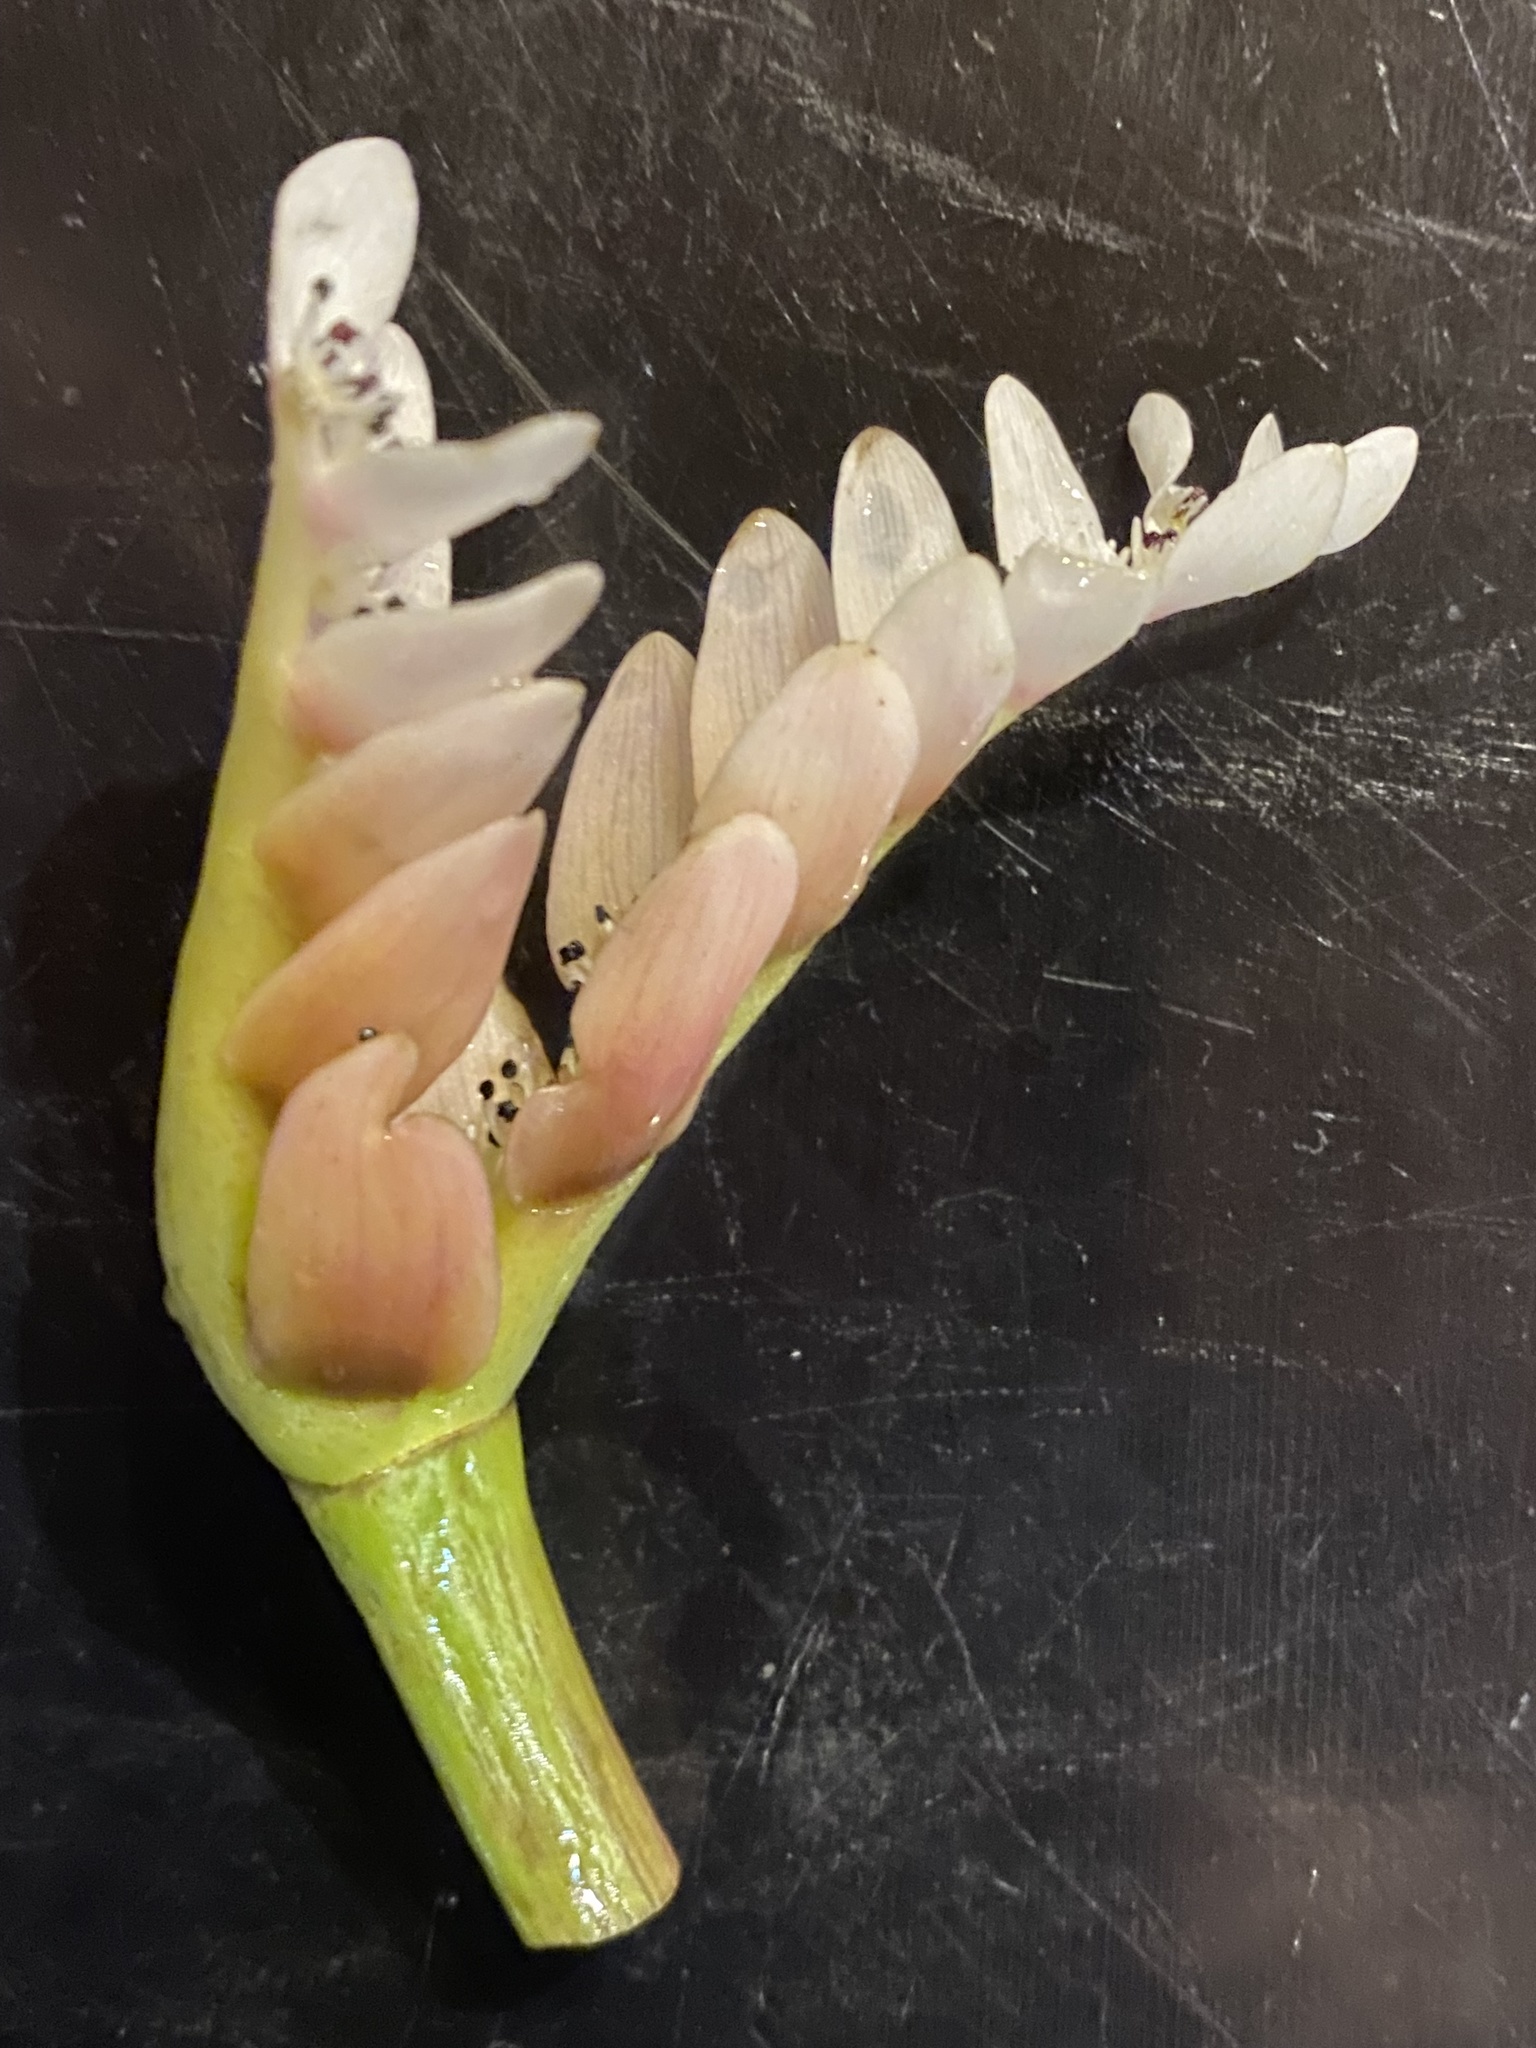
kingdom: Plantae
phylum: Tracheophyta
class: Liliopsida
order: Alismatales
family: Aponogetonaceae
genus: Aponogeton
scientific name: Aponogeton distachyos
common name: Cape-pondweed
